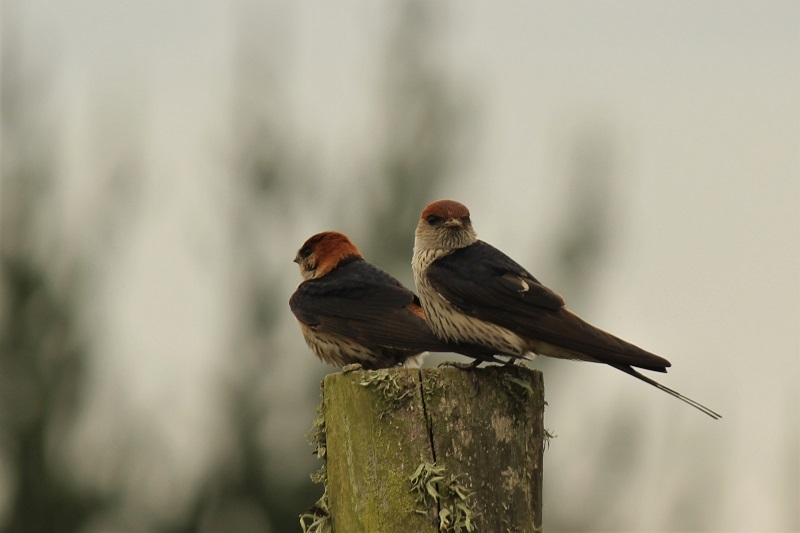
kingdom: Animalia
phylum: Chordata
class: Aves
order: Passeriformes
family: Hirundinidae
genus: Cecropis
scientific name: Cecropis cucullata
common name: Greater striped-swallow
